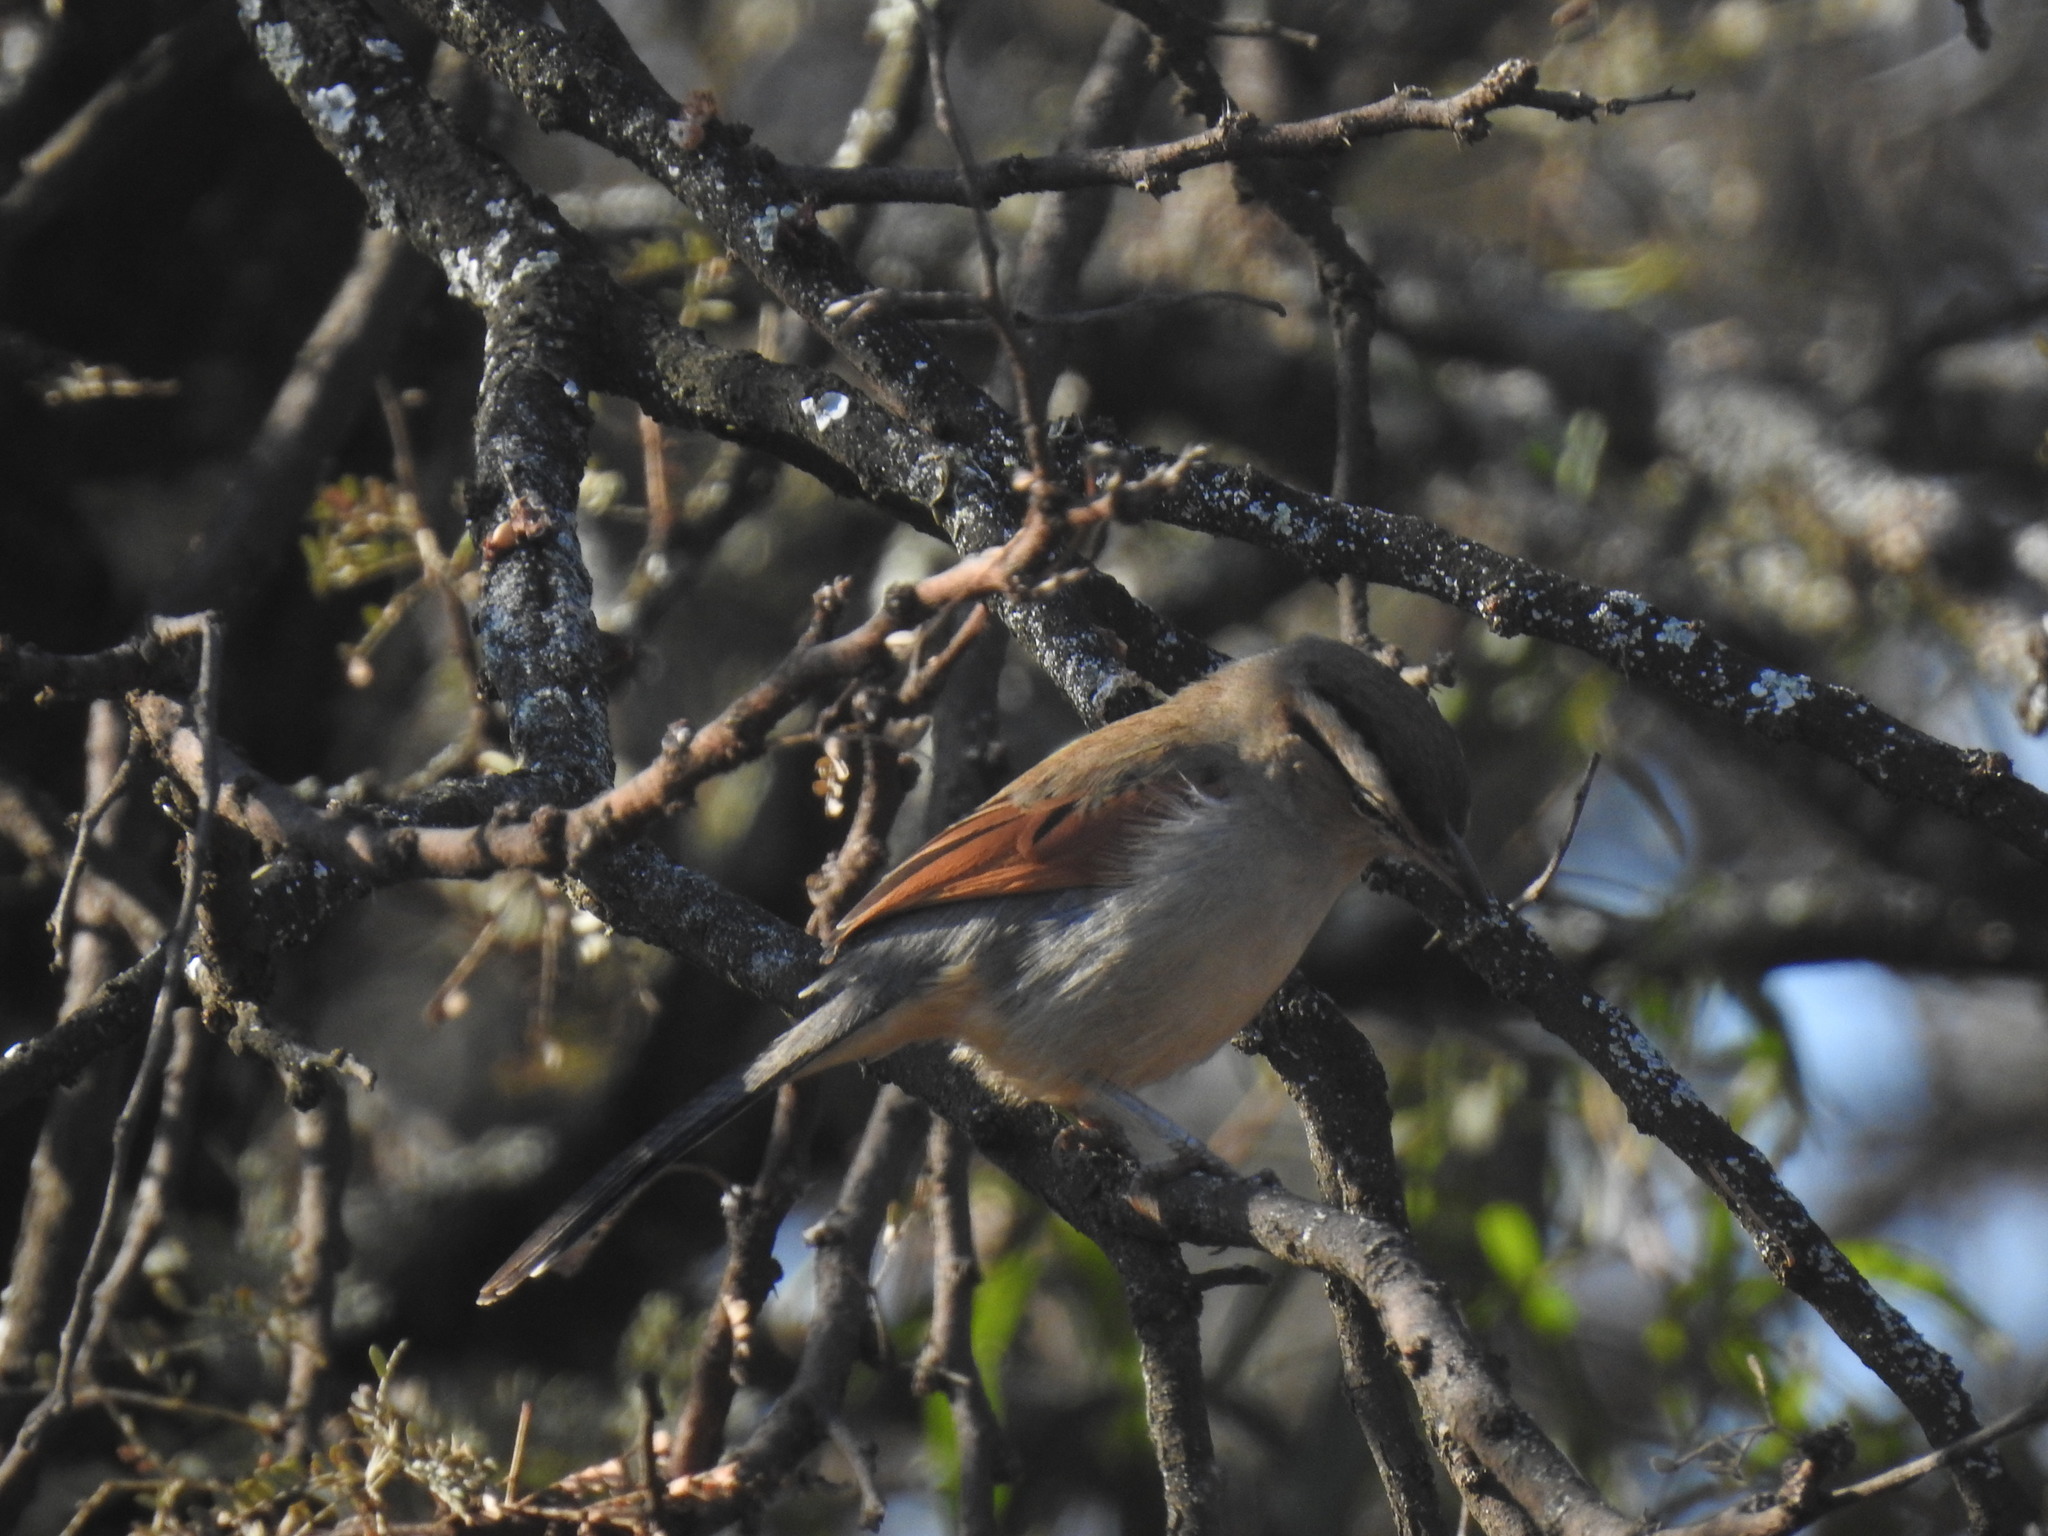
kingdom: Animalia
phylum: Chordata
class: Aves
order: Passeriformes
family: Malaconotidae
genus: Tchagra
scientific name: Tchagra australis
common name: Brown-crowned tchagra
